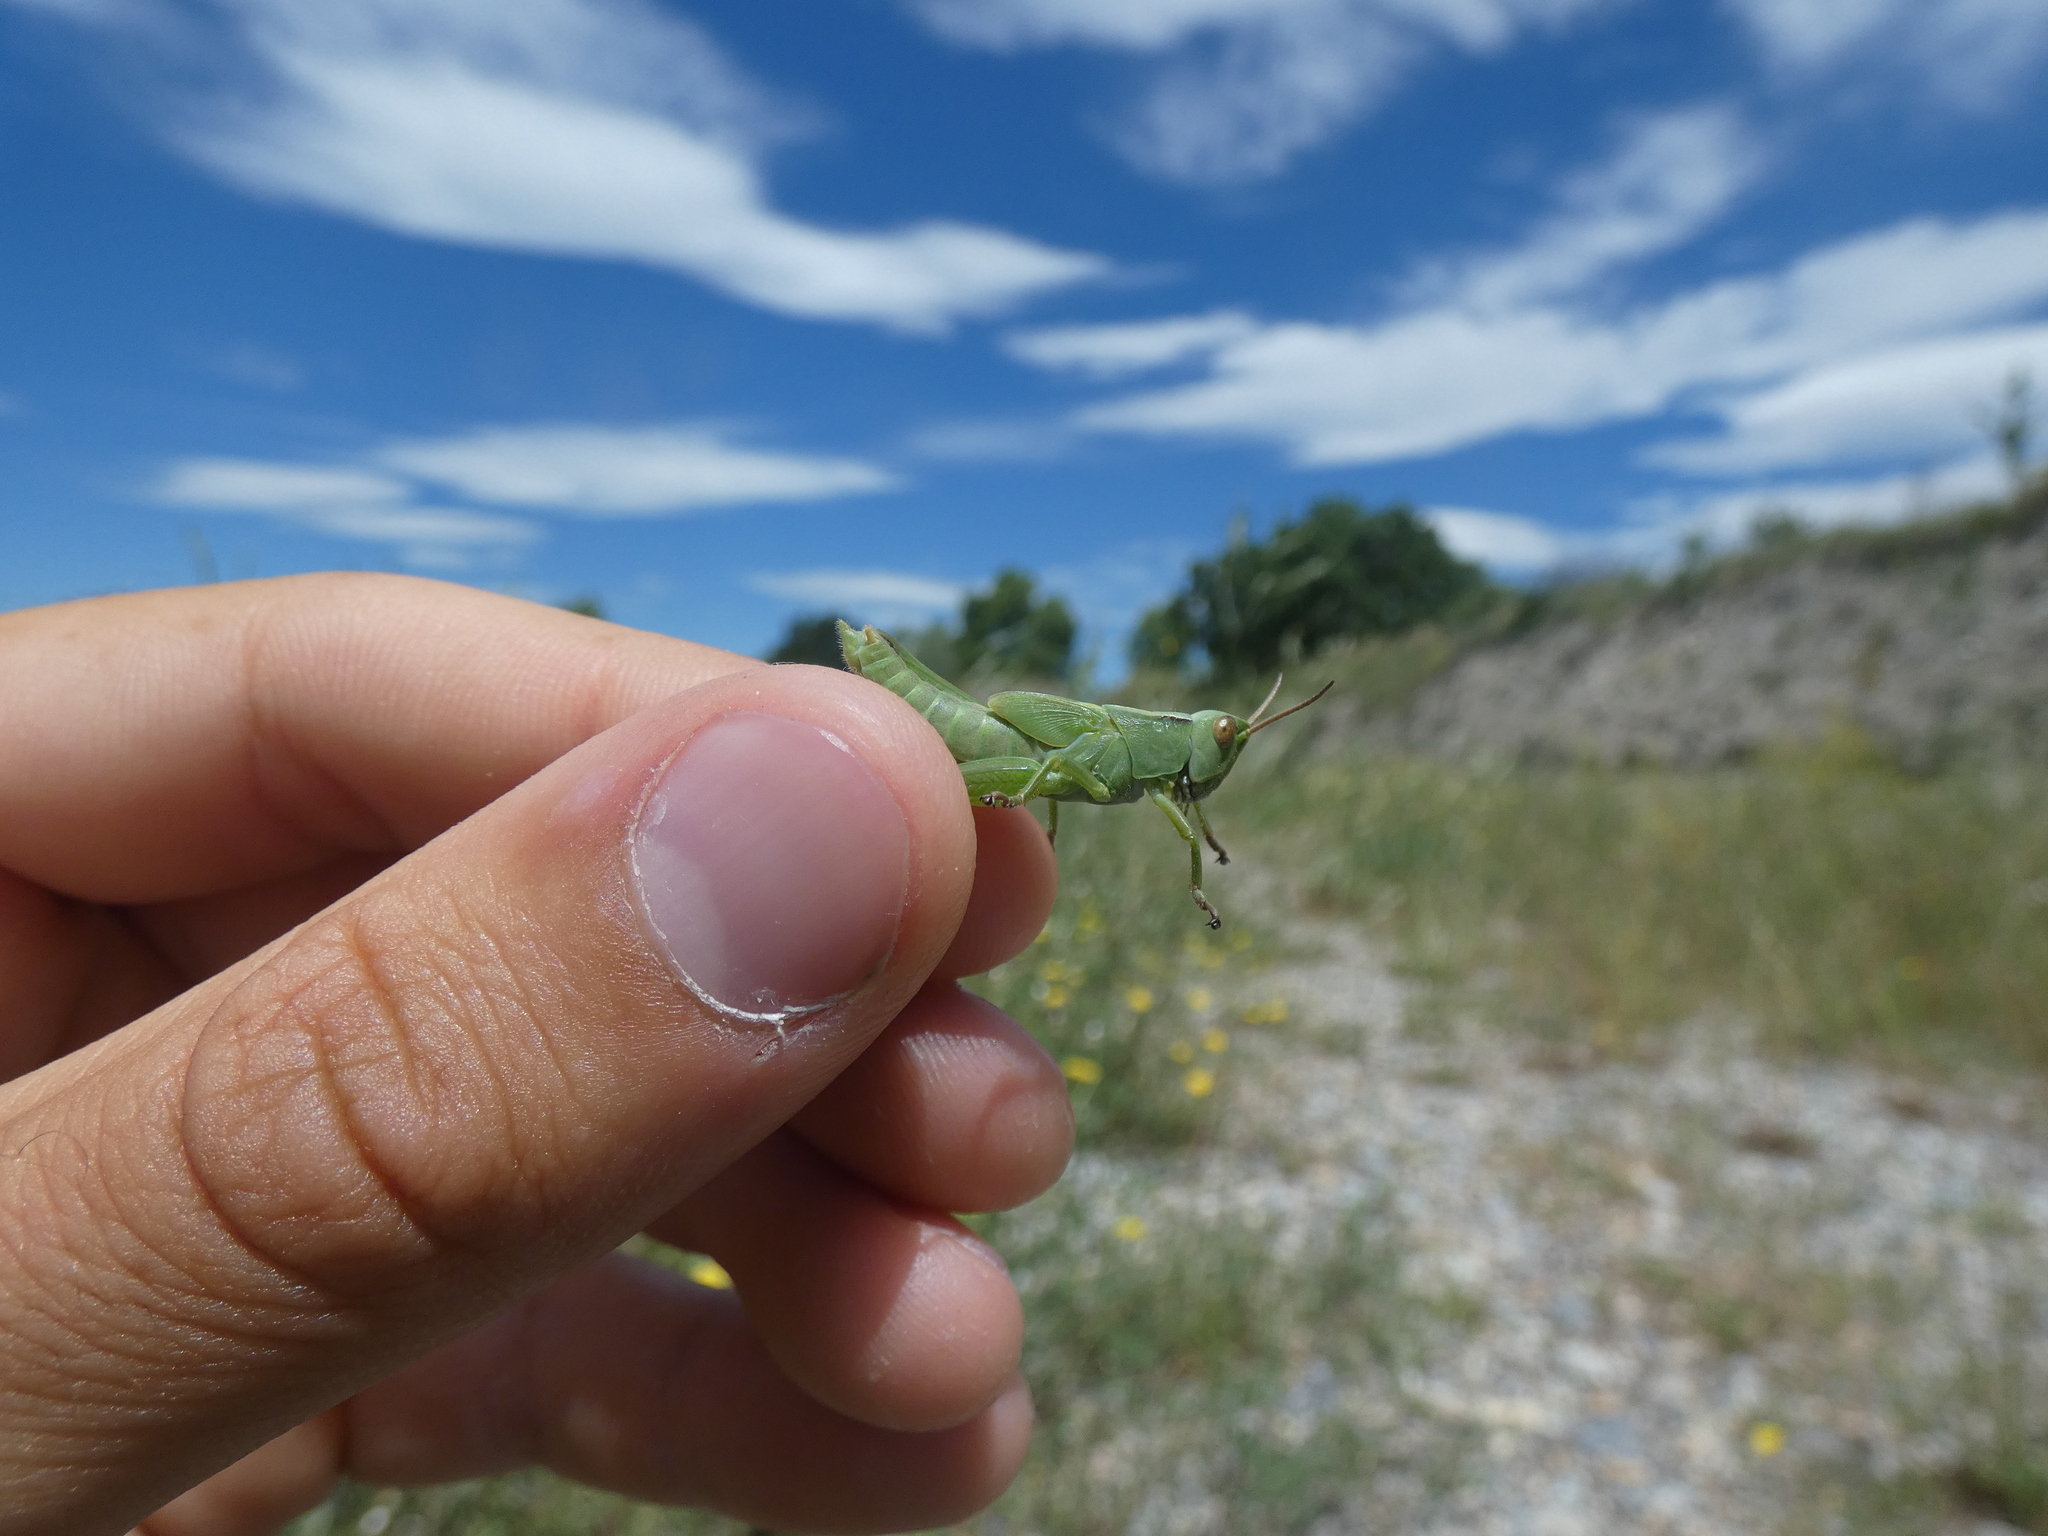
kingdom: Animalia
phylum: Arthropoda
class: Insecta
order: Orthoptera
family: Acrididae
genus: Paracinema
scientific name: Paracinema tricolor
